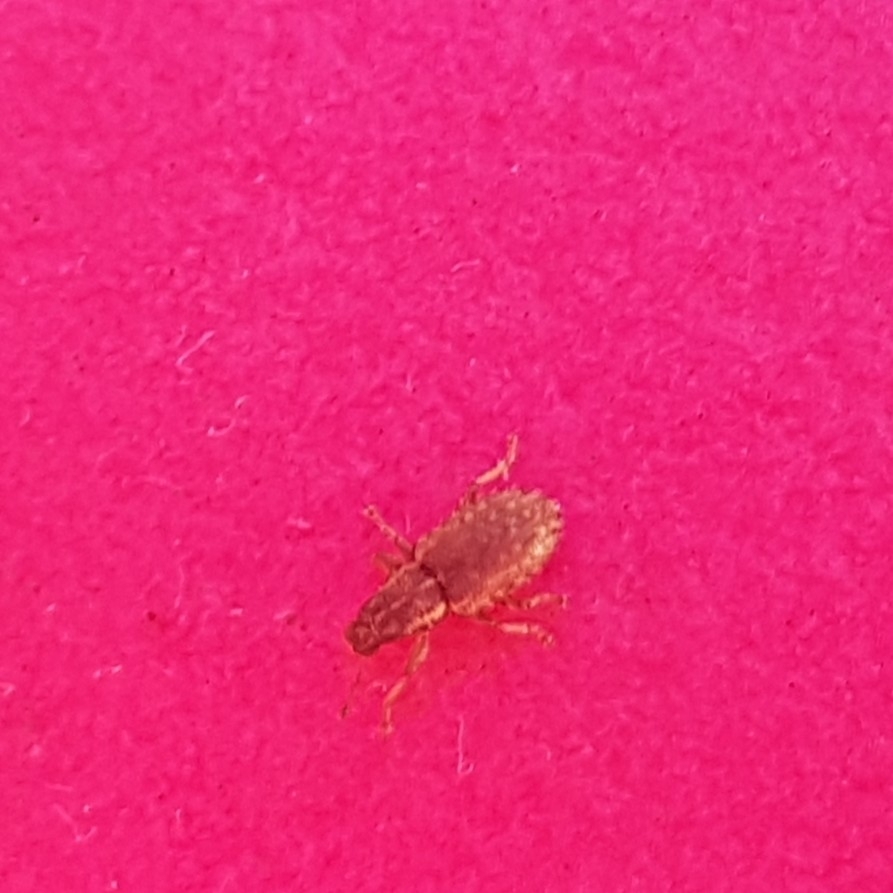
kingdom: Animalia
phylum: Arthropoda
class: Insecta
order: Coleoptera
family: Curculionidae
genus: Sitona
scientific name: Sitona hispidulus
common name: Clover weevil
